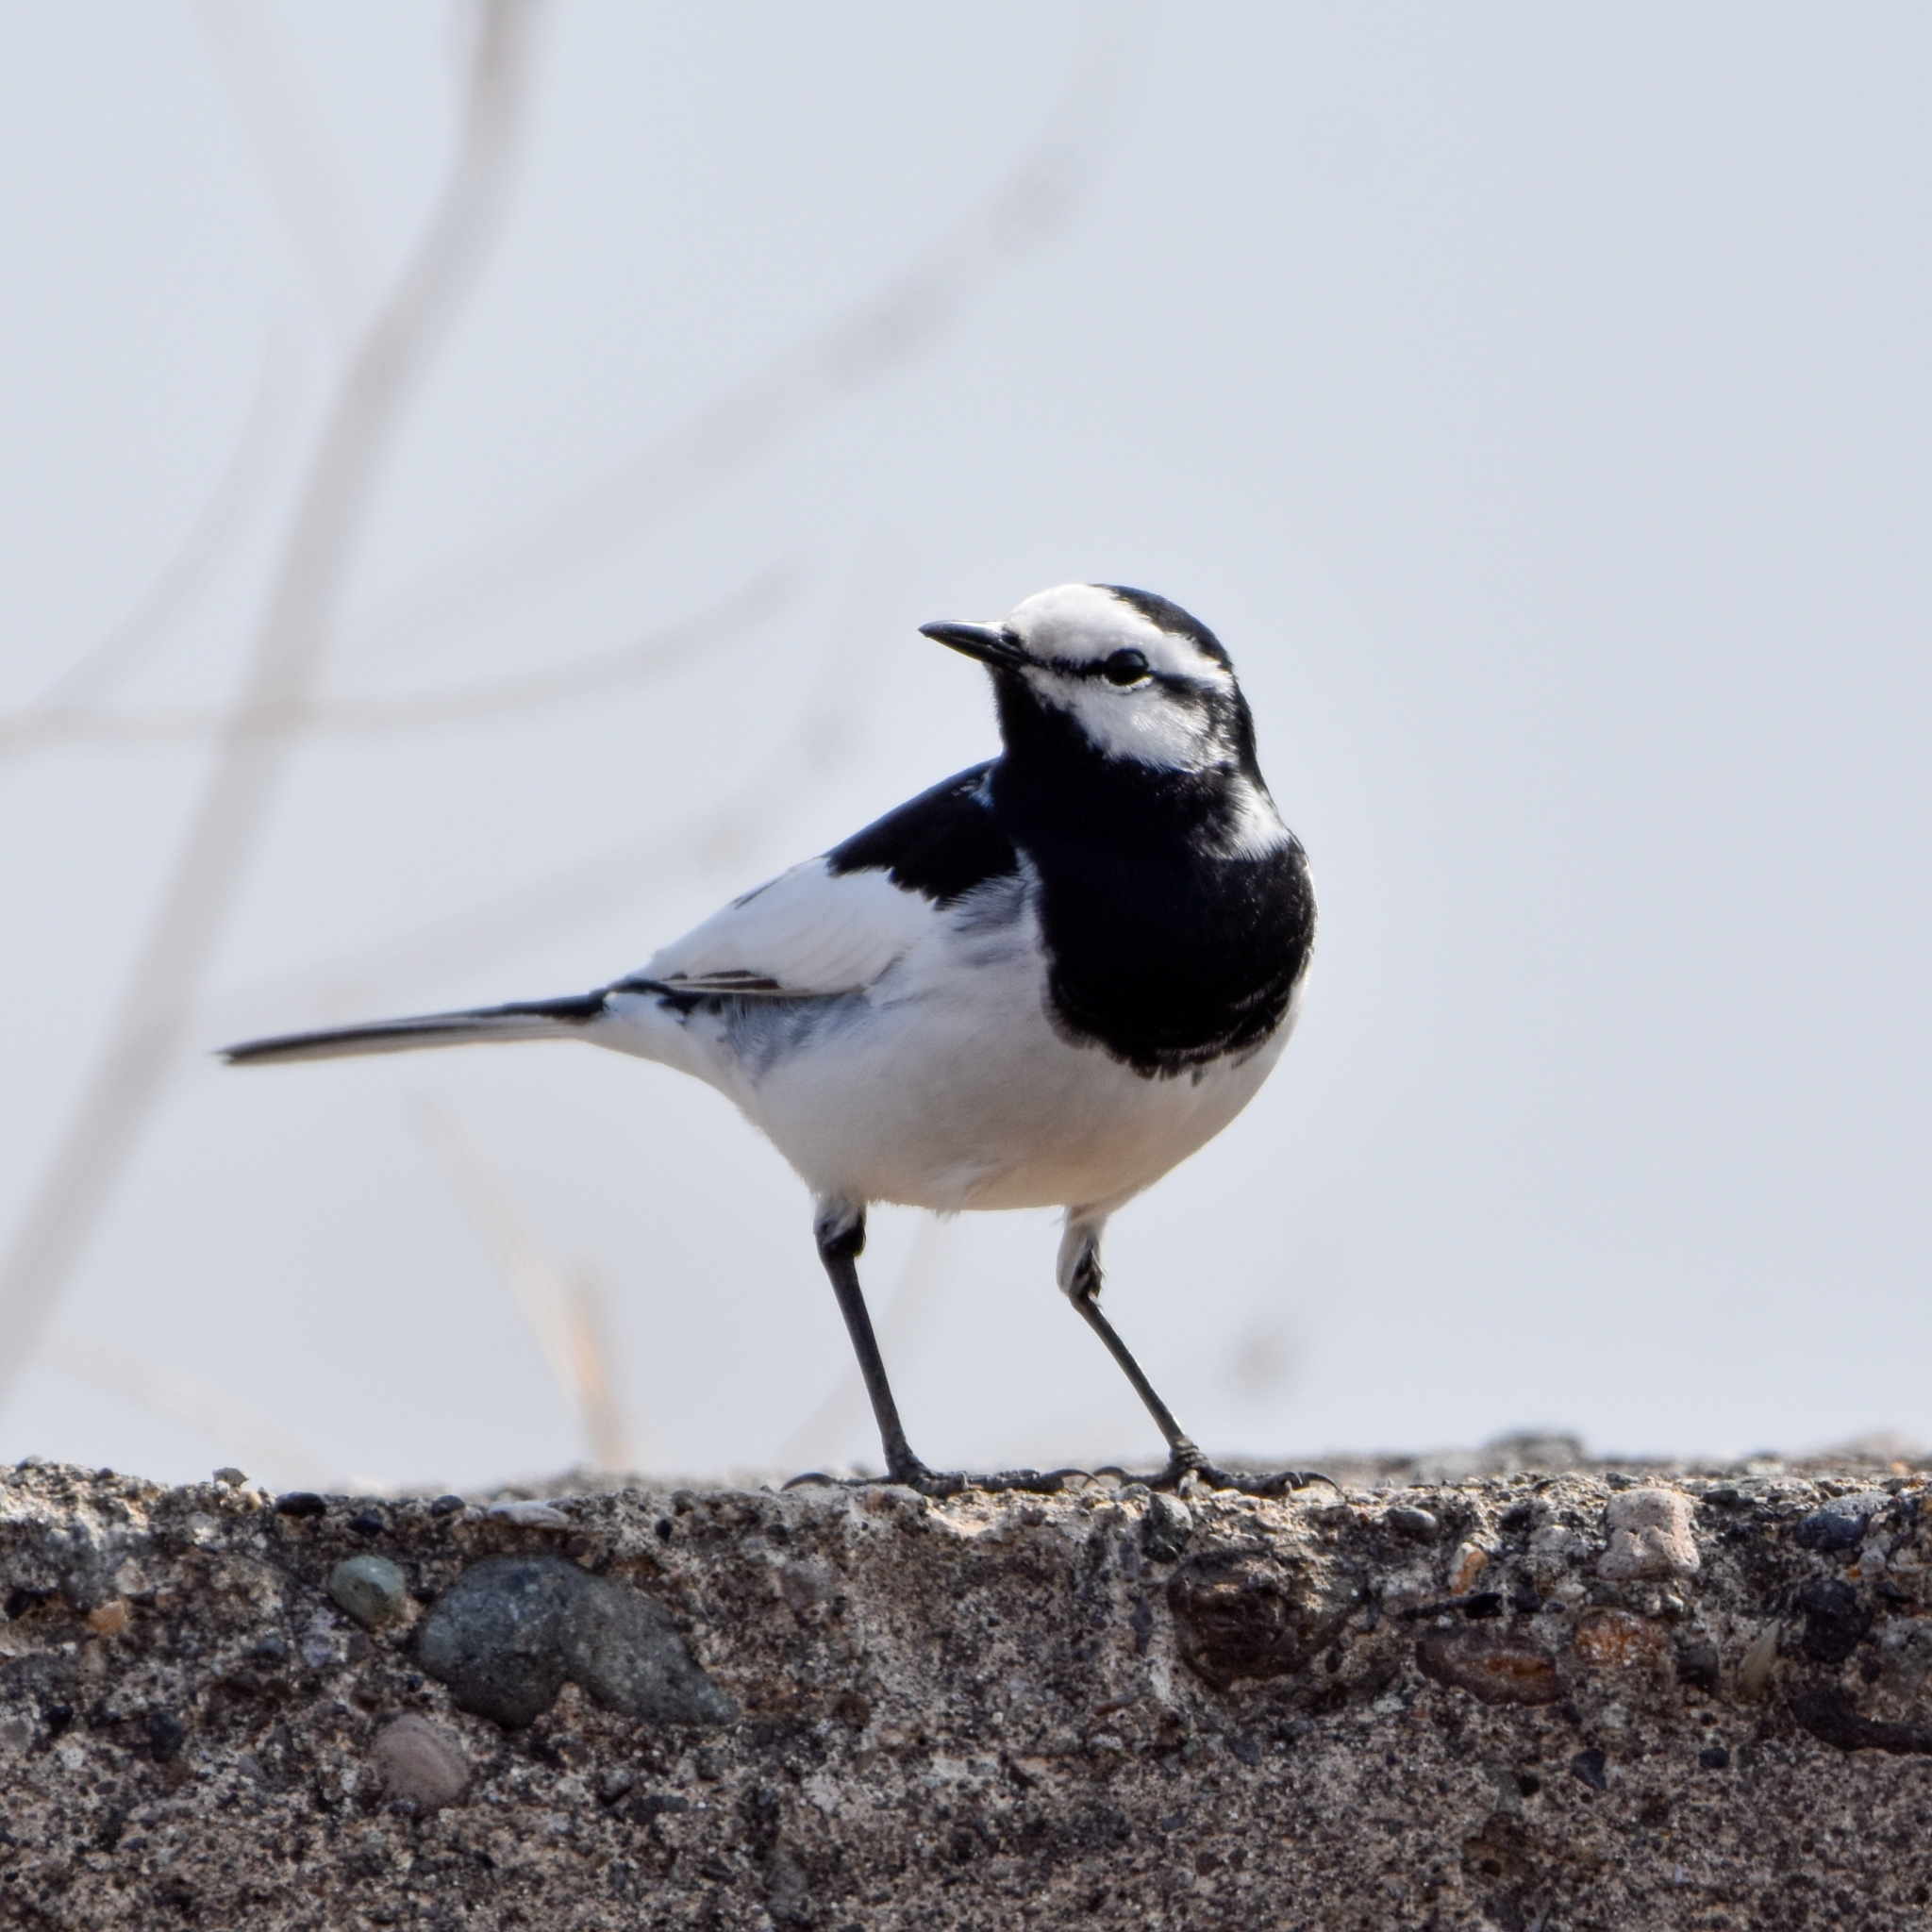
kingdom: Animalia
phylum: Chordata
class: Aves
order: Passeriformes
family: Motacillidae
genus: Motacilla
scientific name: Motacilla alba
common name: White wagtail
